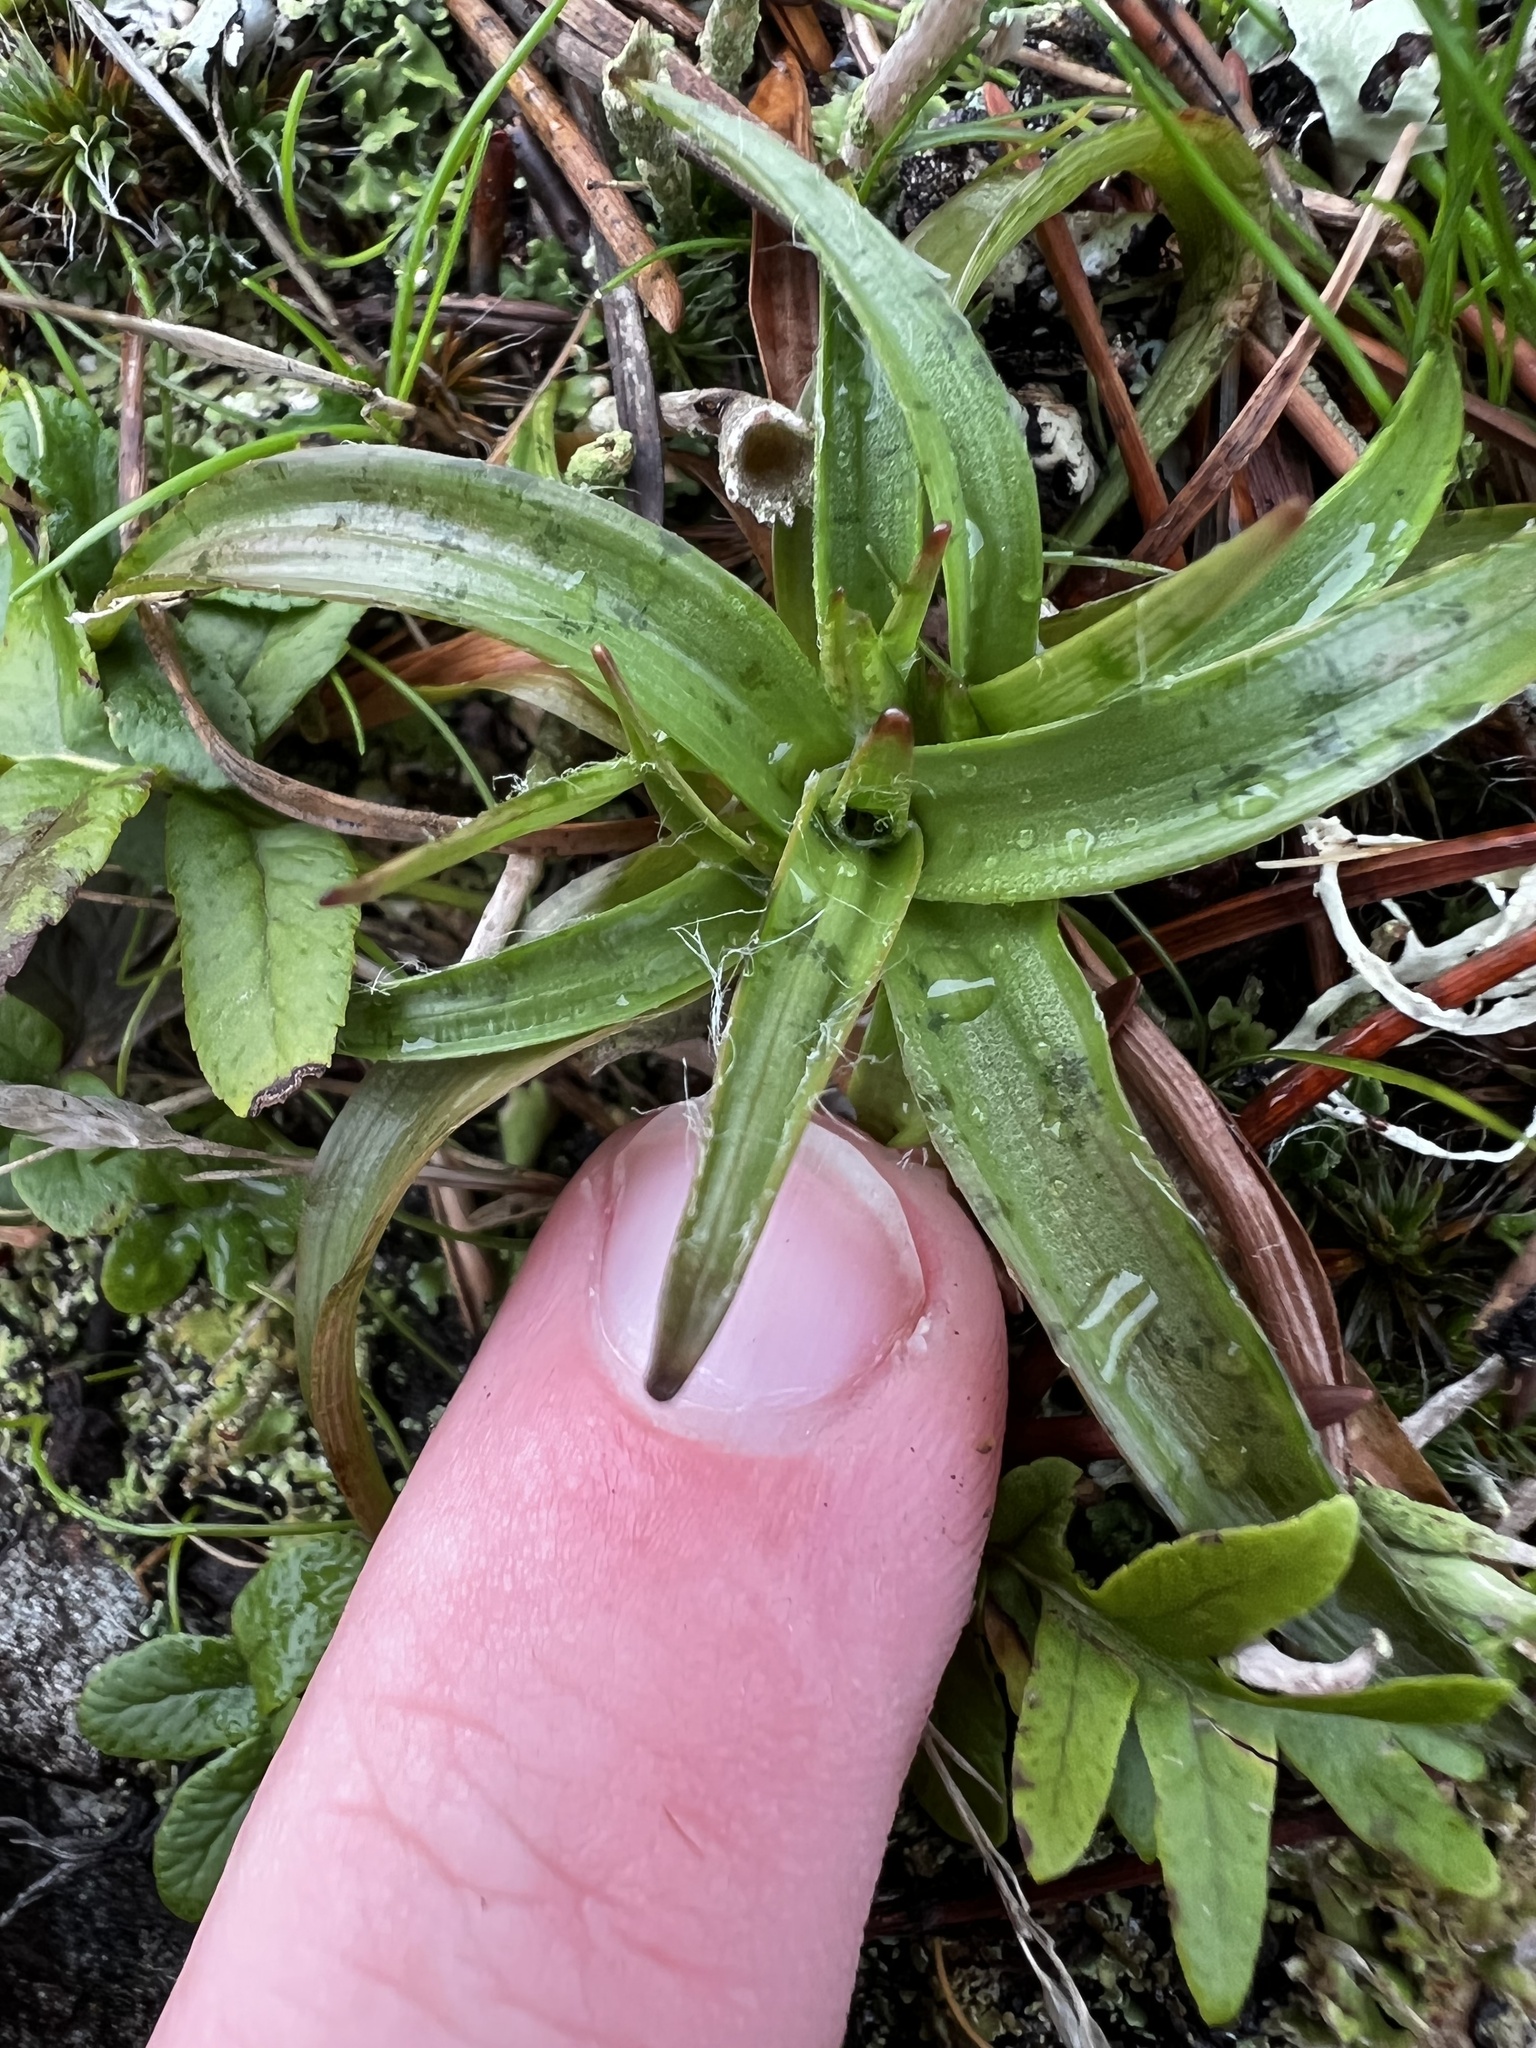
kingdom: Plantae
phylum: Tracheophyta
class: Magnoliopsida
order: Lamiales
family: Plantaginaceae
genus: Plantago
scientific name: Plantago maritima
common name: Sea plantain
